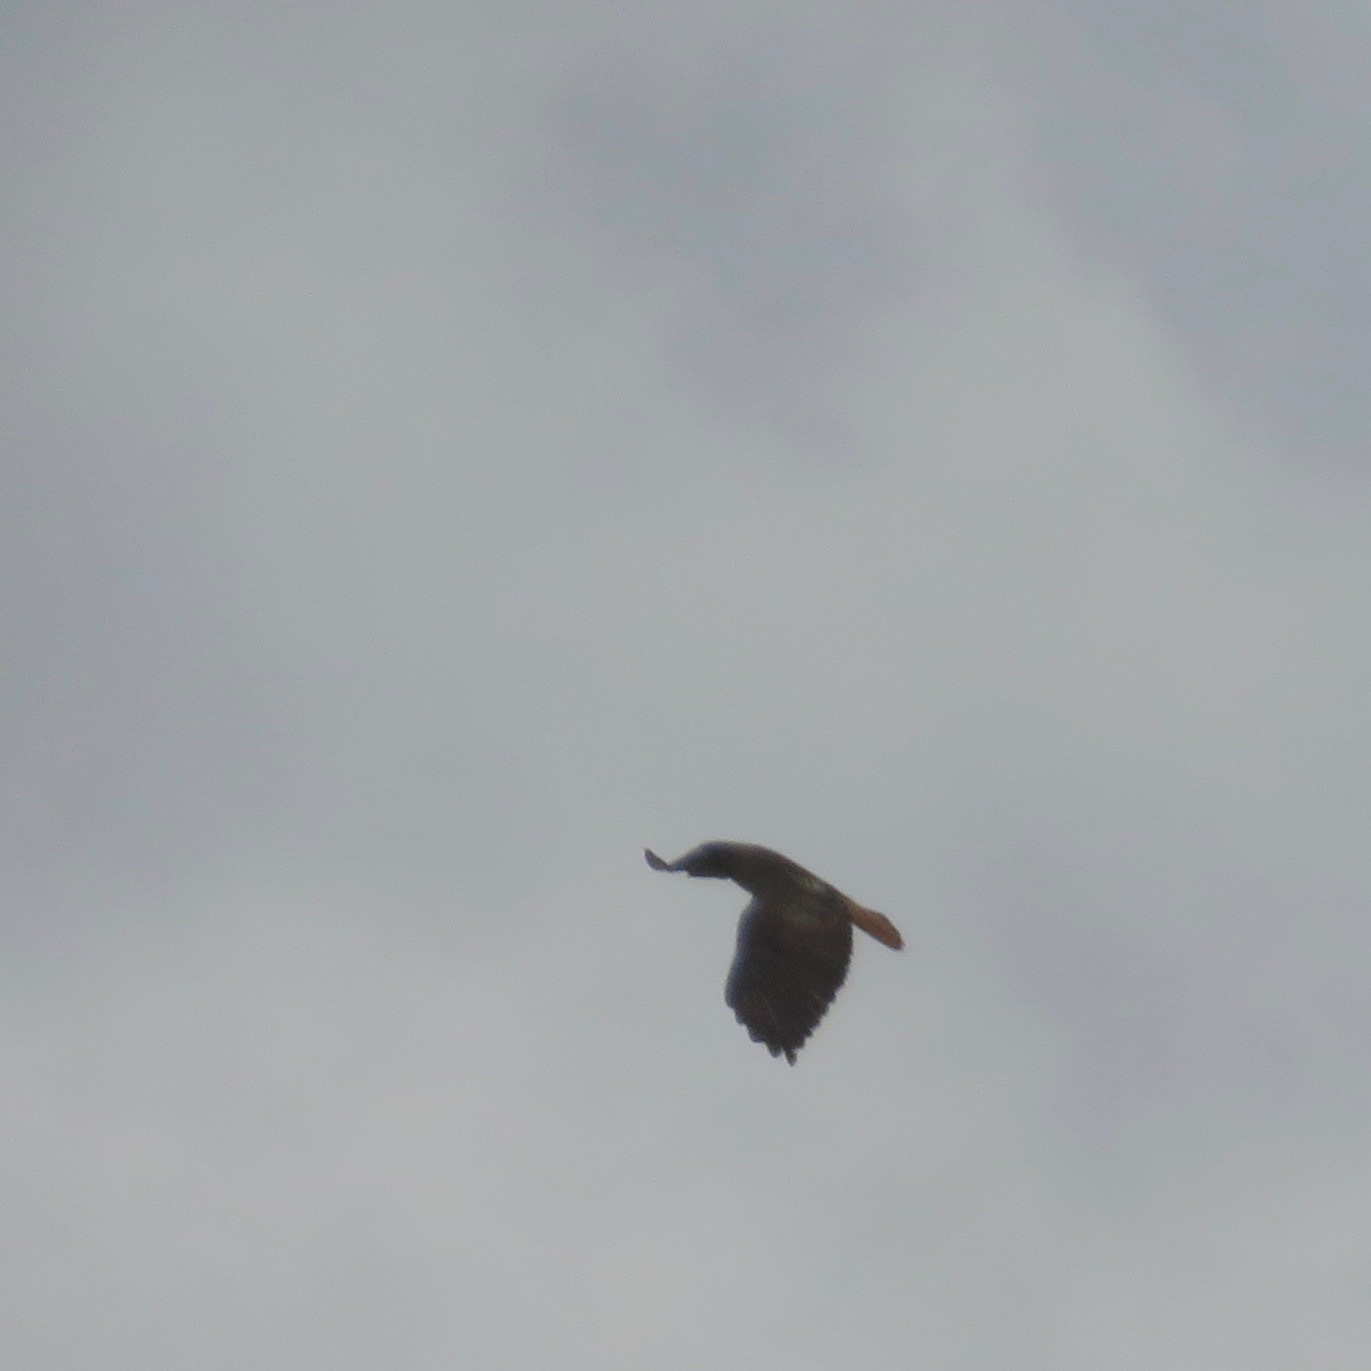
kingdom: Animalia
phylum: Chordata
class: Aves
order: Accipitriformes
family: Accipitridae
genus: Buteo
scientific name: Buteo jamaicensis
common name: Red-tailed hawk
